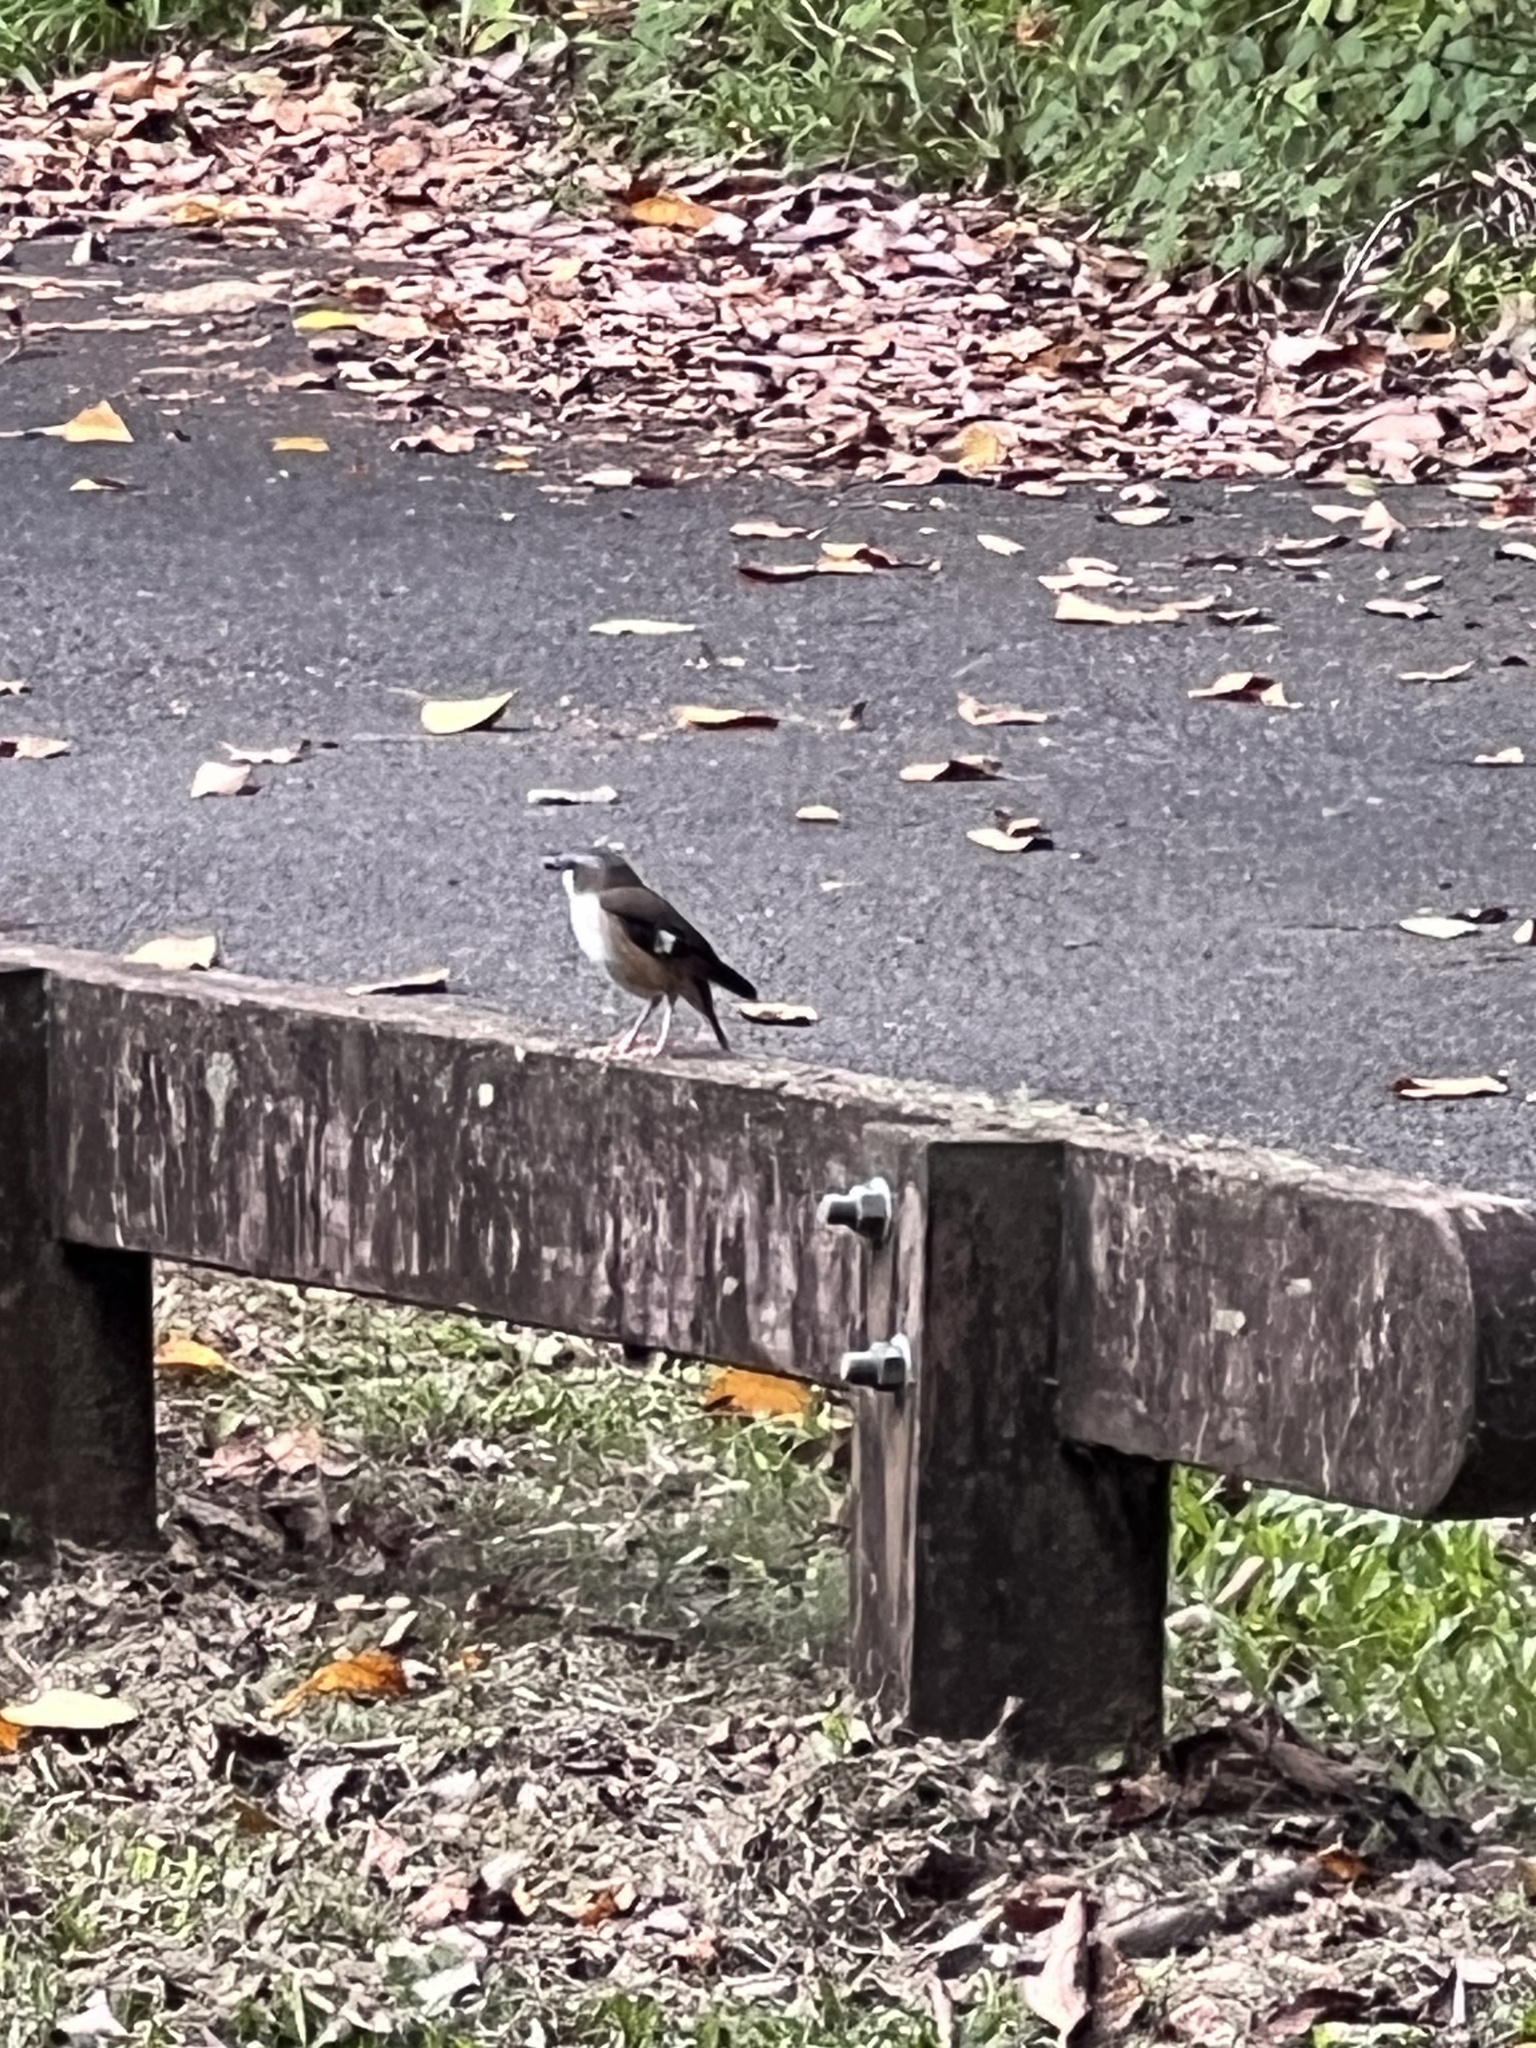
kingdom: Animalia
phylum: Chordata
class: Aves
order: Passeriformes
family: Petroicidae
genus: Heteromyias
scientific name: Heteromyias cinereifrons
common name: Grey-headed robin
